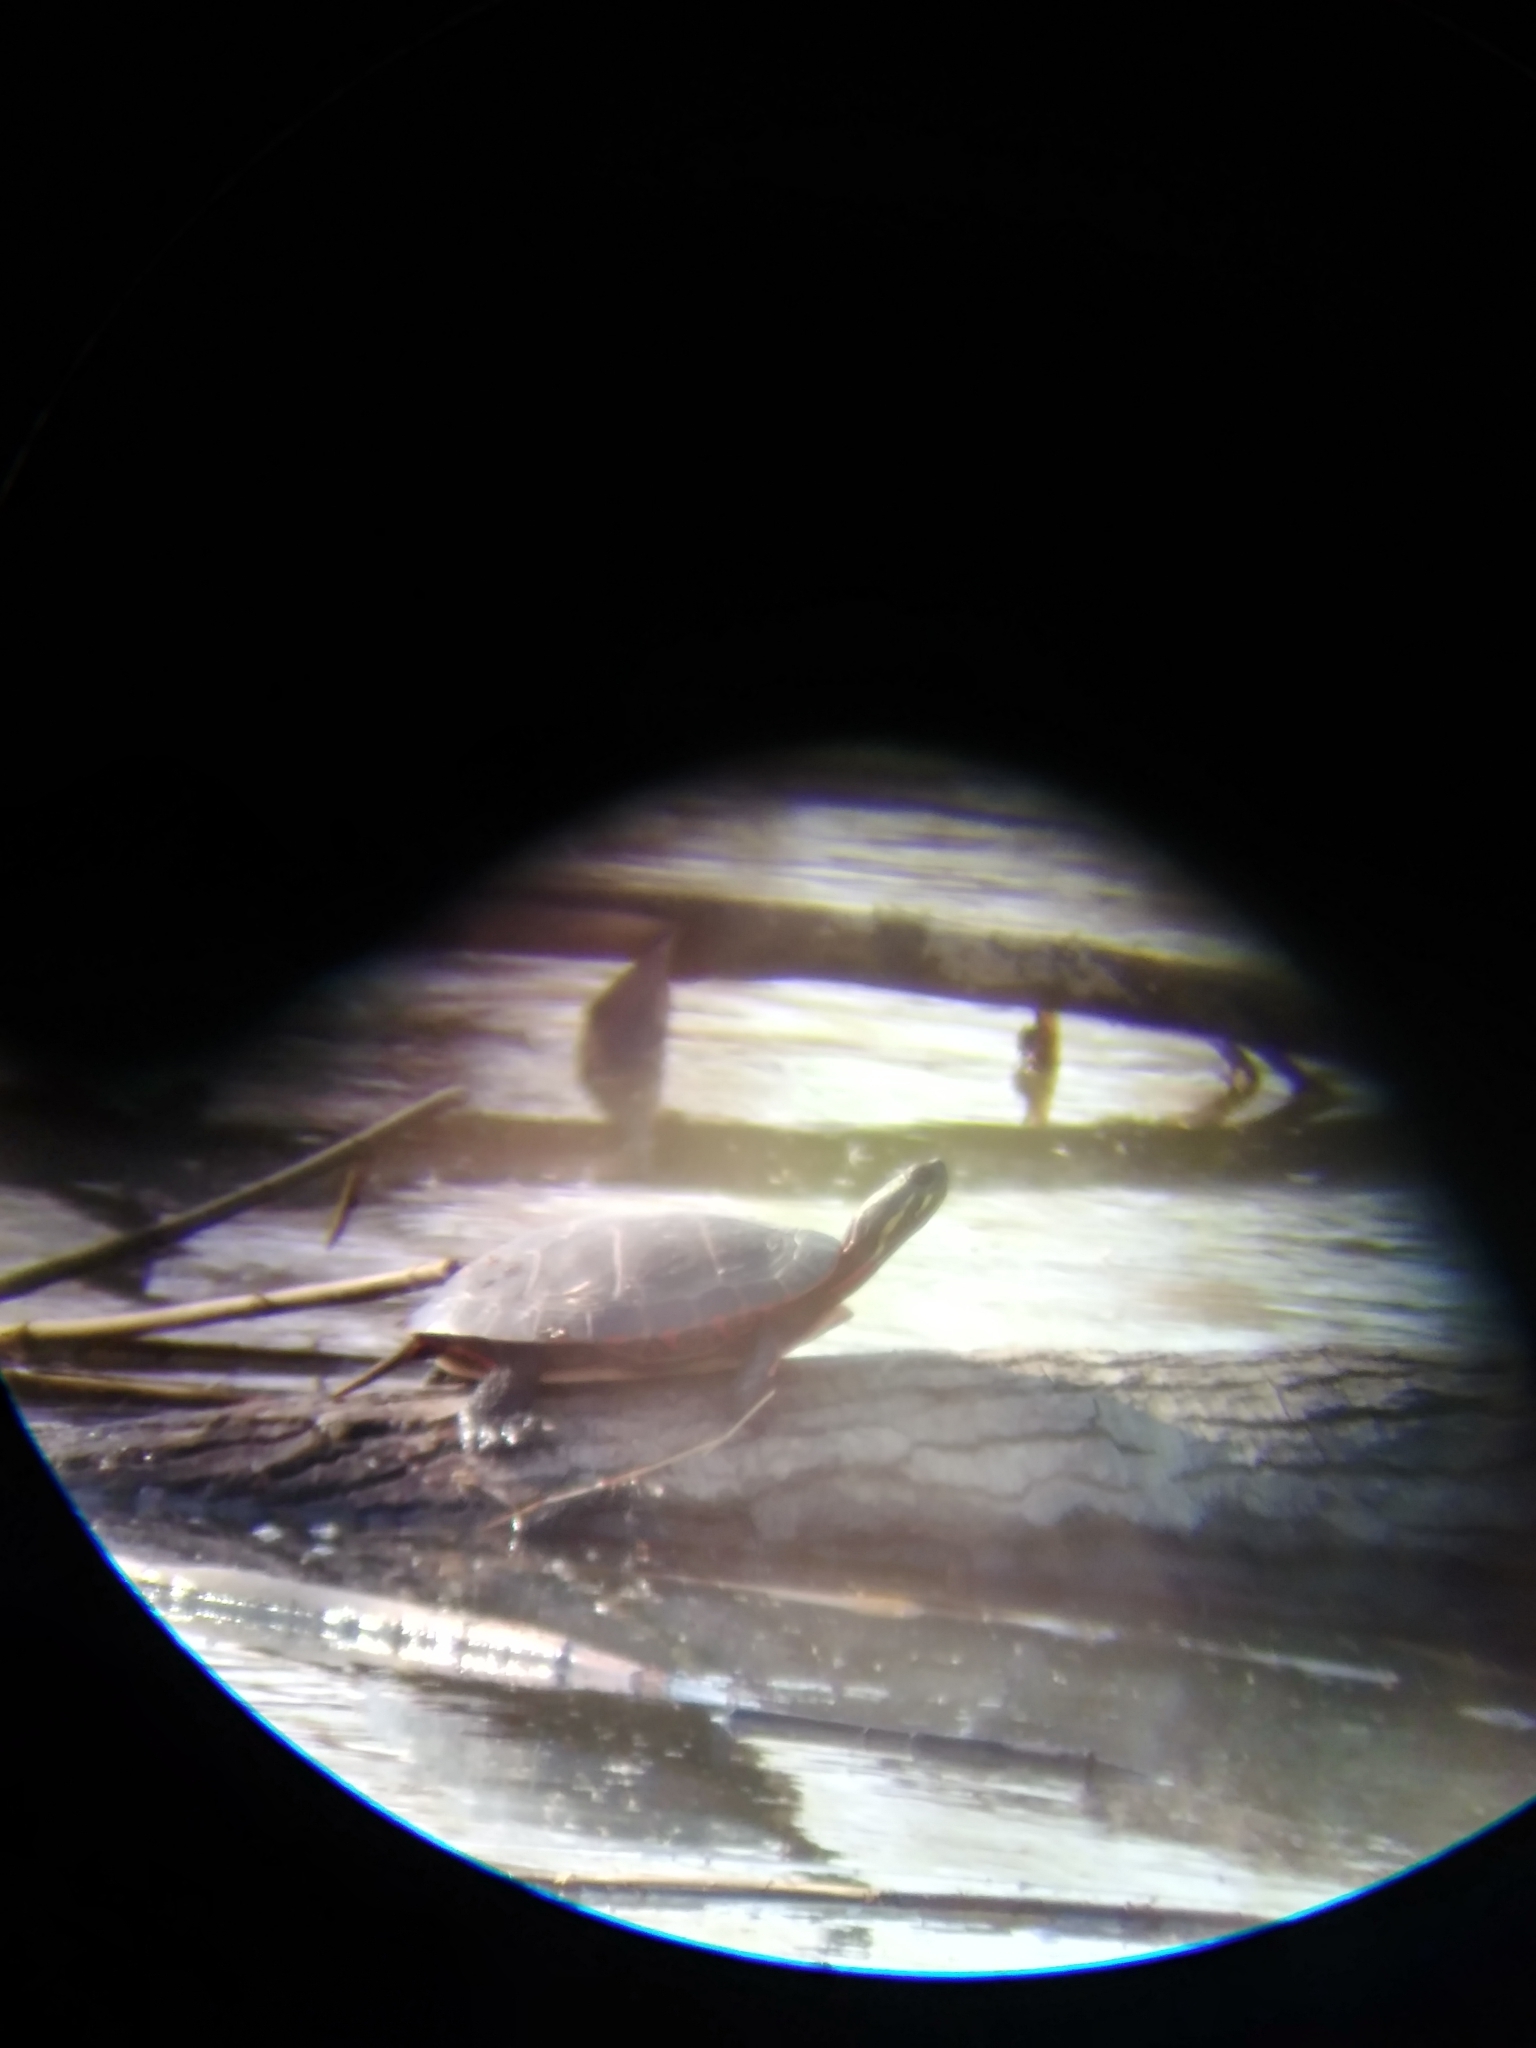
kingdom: Animalia
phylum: Chordata
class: Testudines
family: Emydidae
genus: Chrysemys
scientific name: Chrysemys picta
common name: Painted turtle
